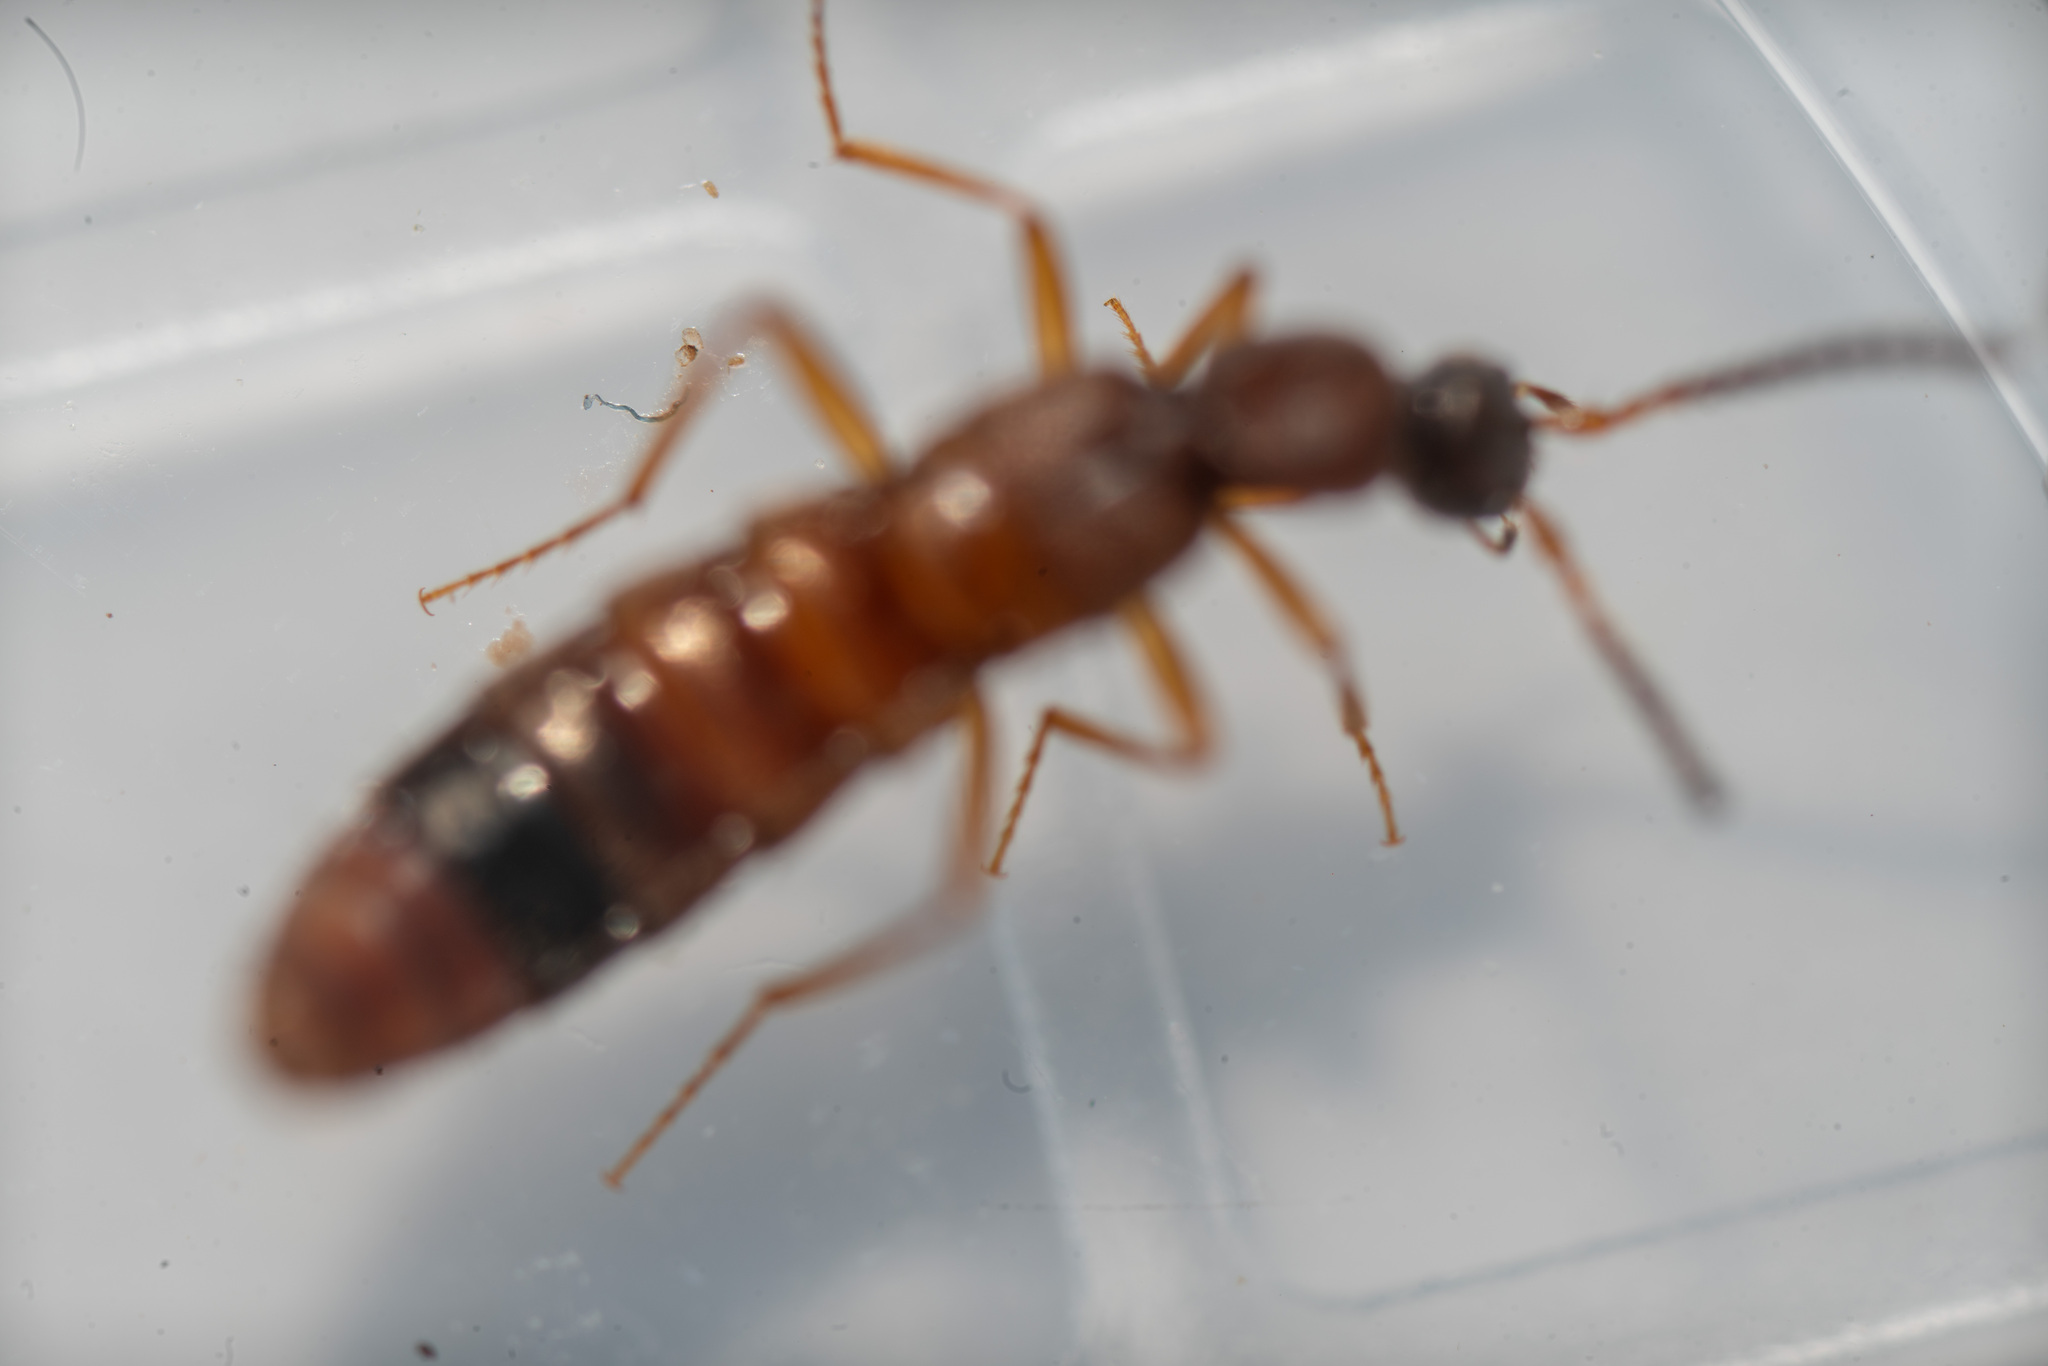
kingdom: Animalia
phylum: Arthropoda
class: Insecta
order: Coleoptera
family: Staphylinidae
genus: Drusilla
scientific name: Drusilla canaliculata
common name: Rove beetle
